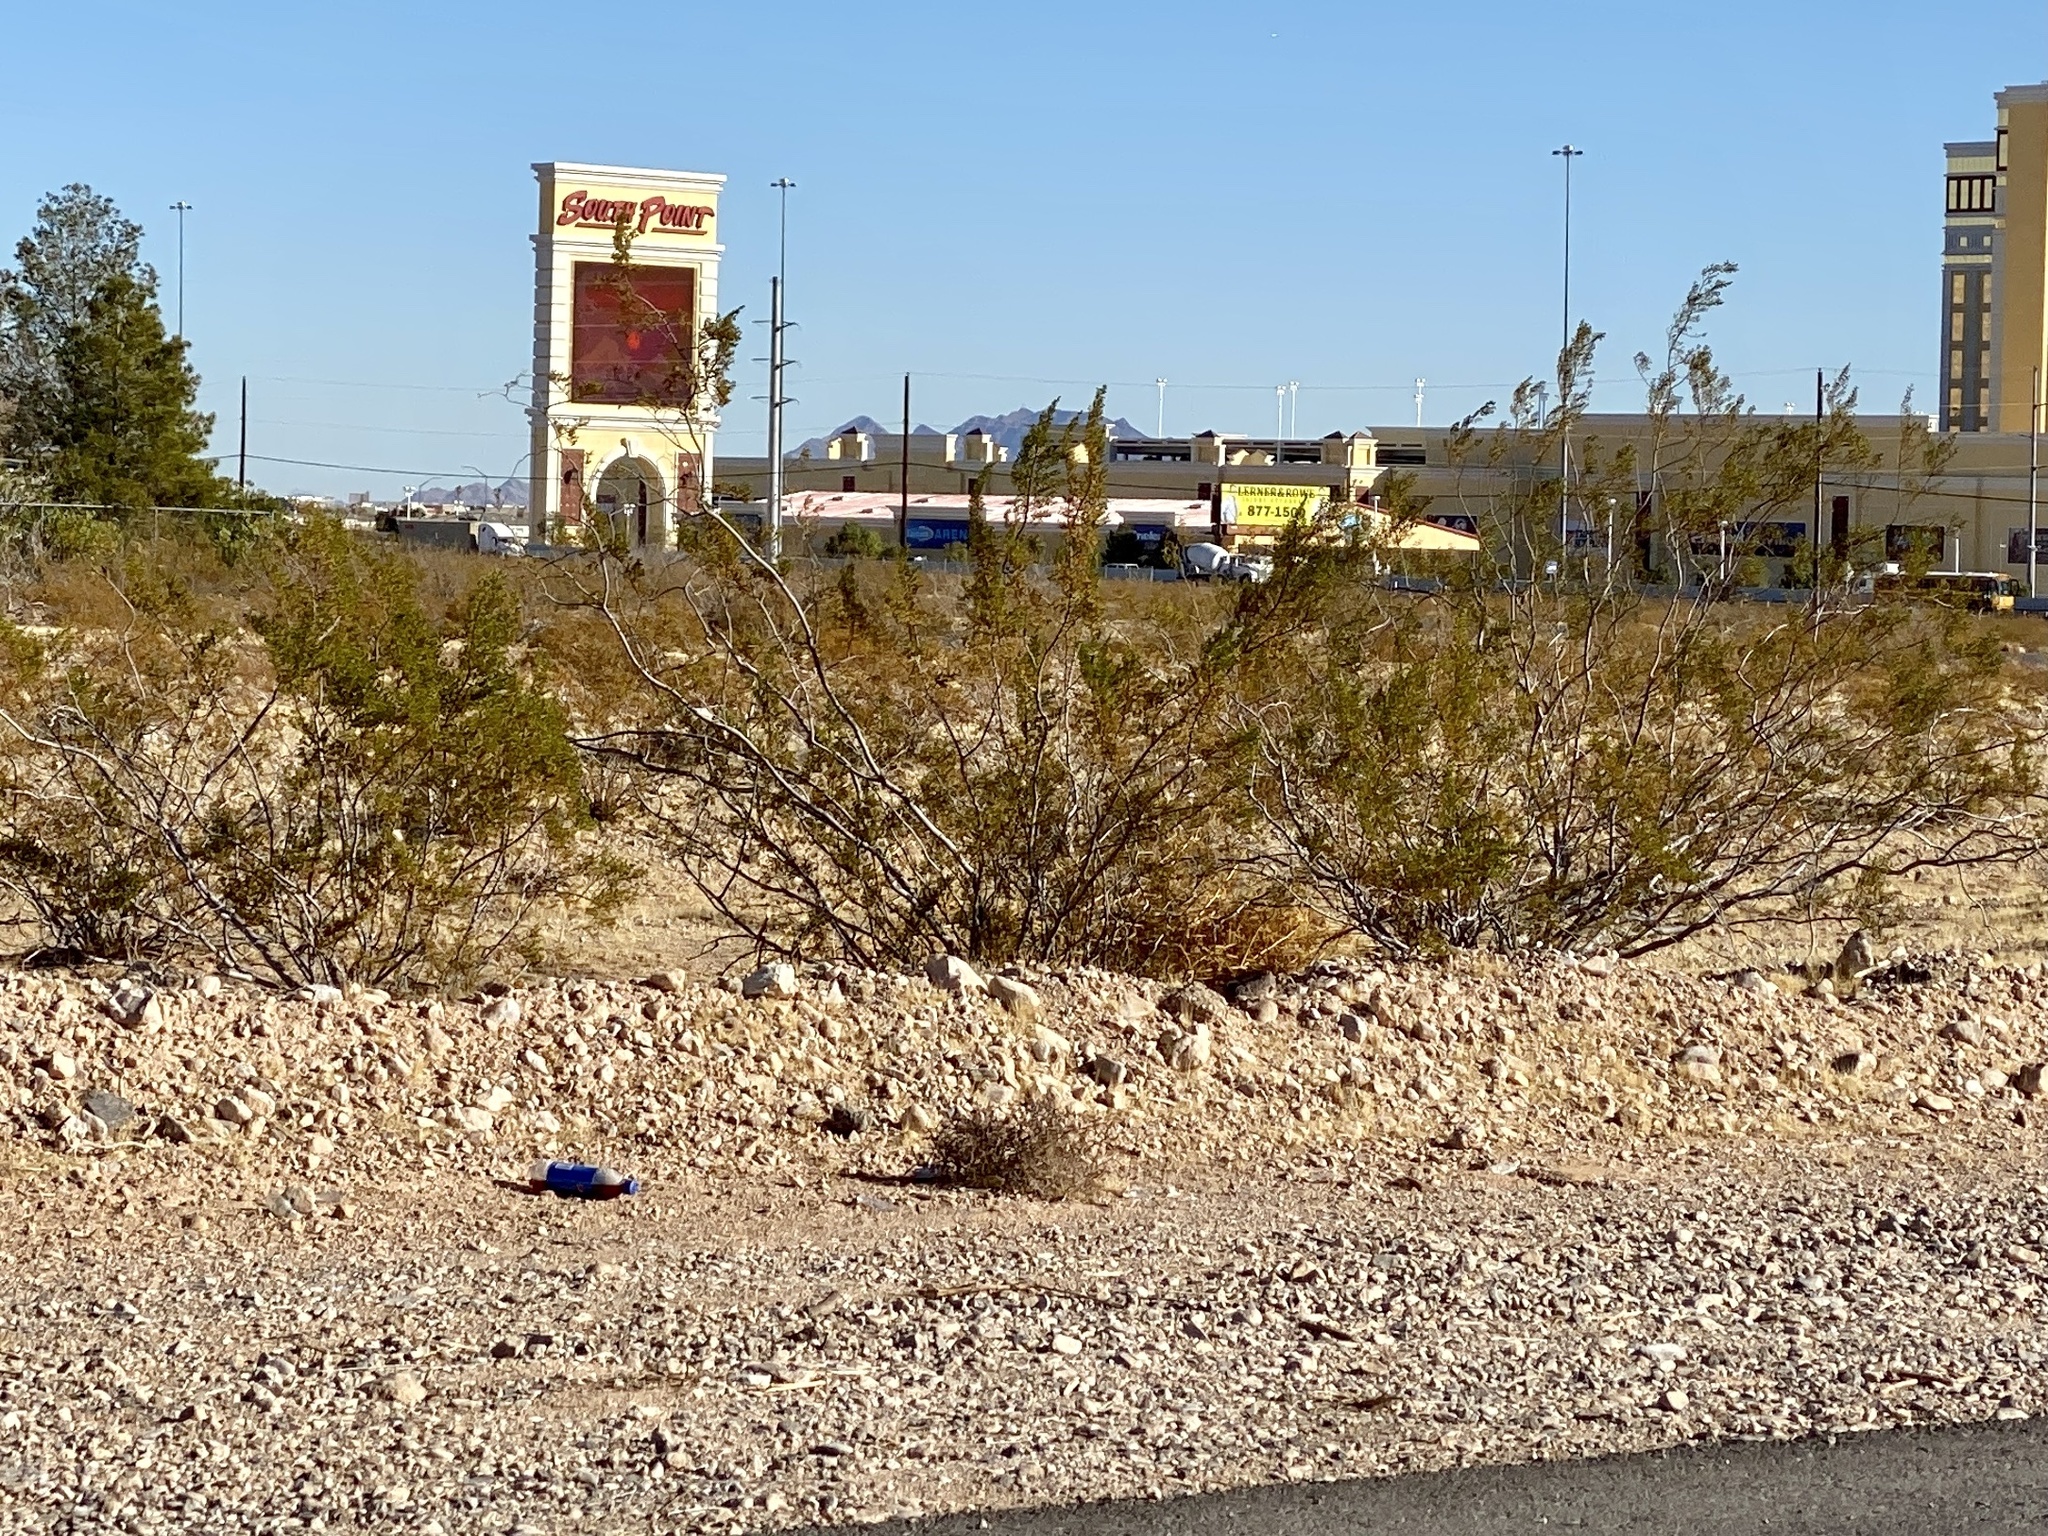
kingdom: Plantae
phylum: Tracheophyta
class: Magnoliopsida
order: Zygophyllales
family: Zygophyllaceae
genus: Larrea
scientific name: Larrea tridentata
